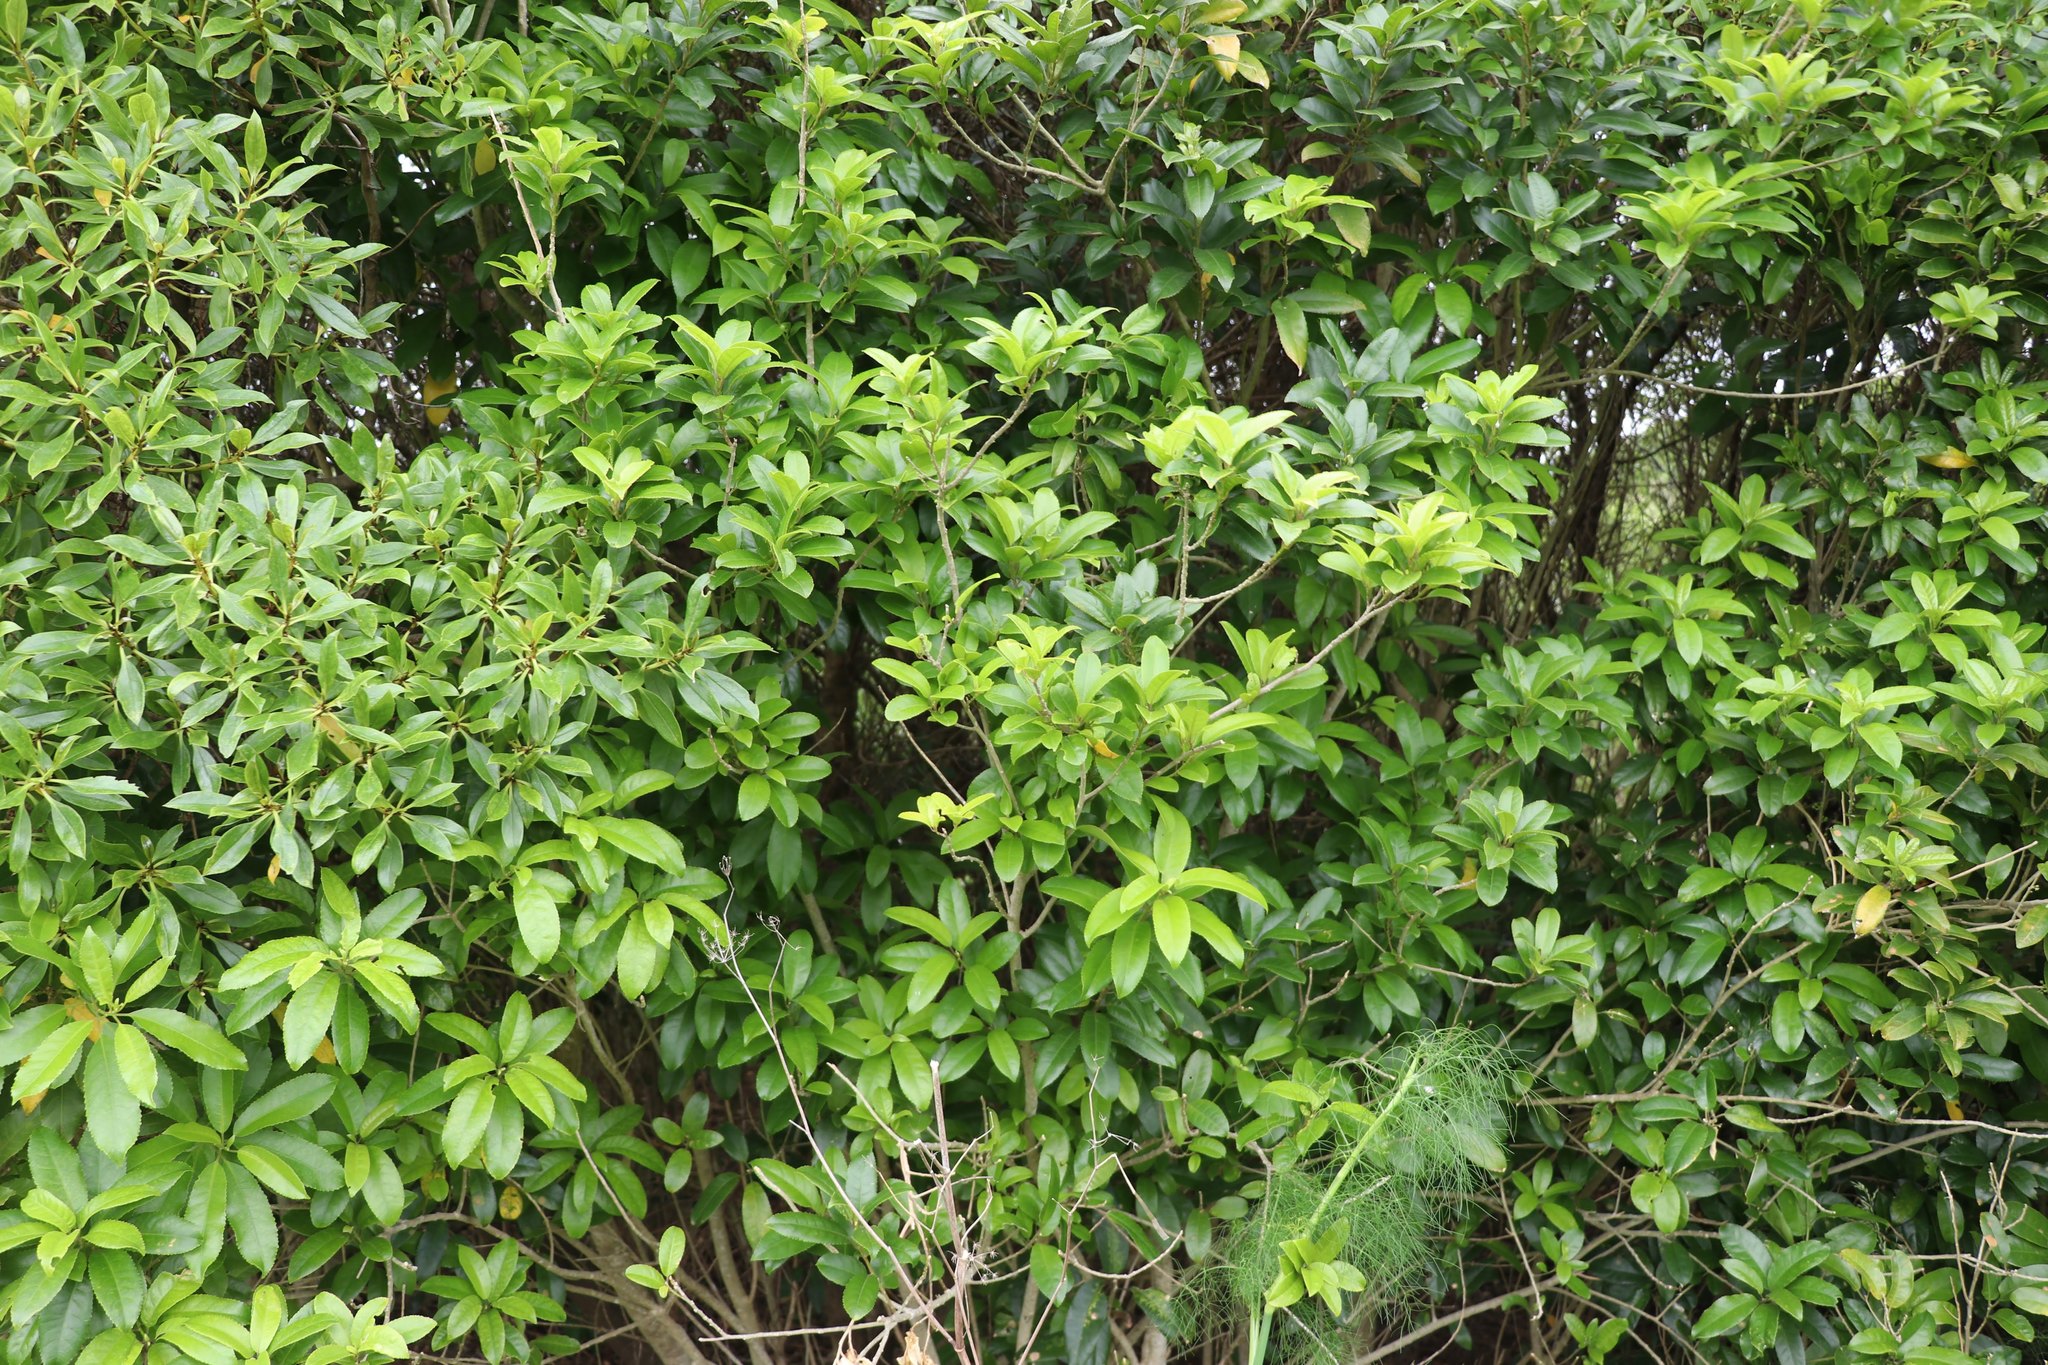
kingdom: Plantae
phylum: Tracheophyta
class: Magnoliopsida
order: Malpighiales
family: Violaceae
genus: Melicytus
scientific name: Melicytus ramiflorus
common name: Mahoe
